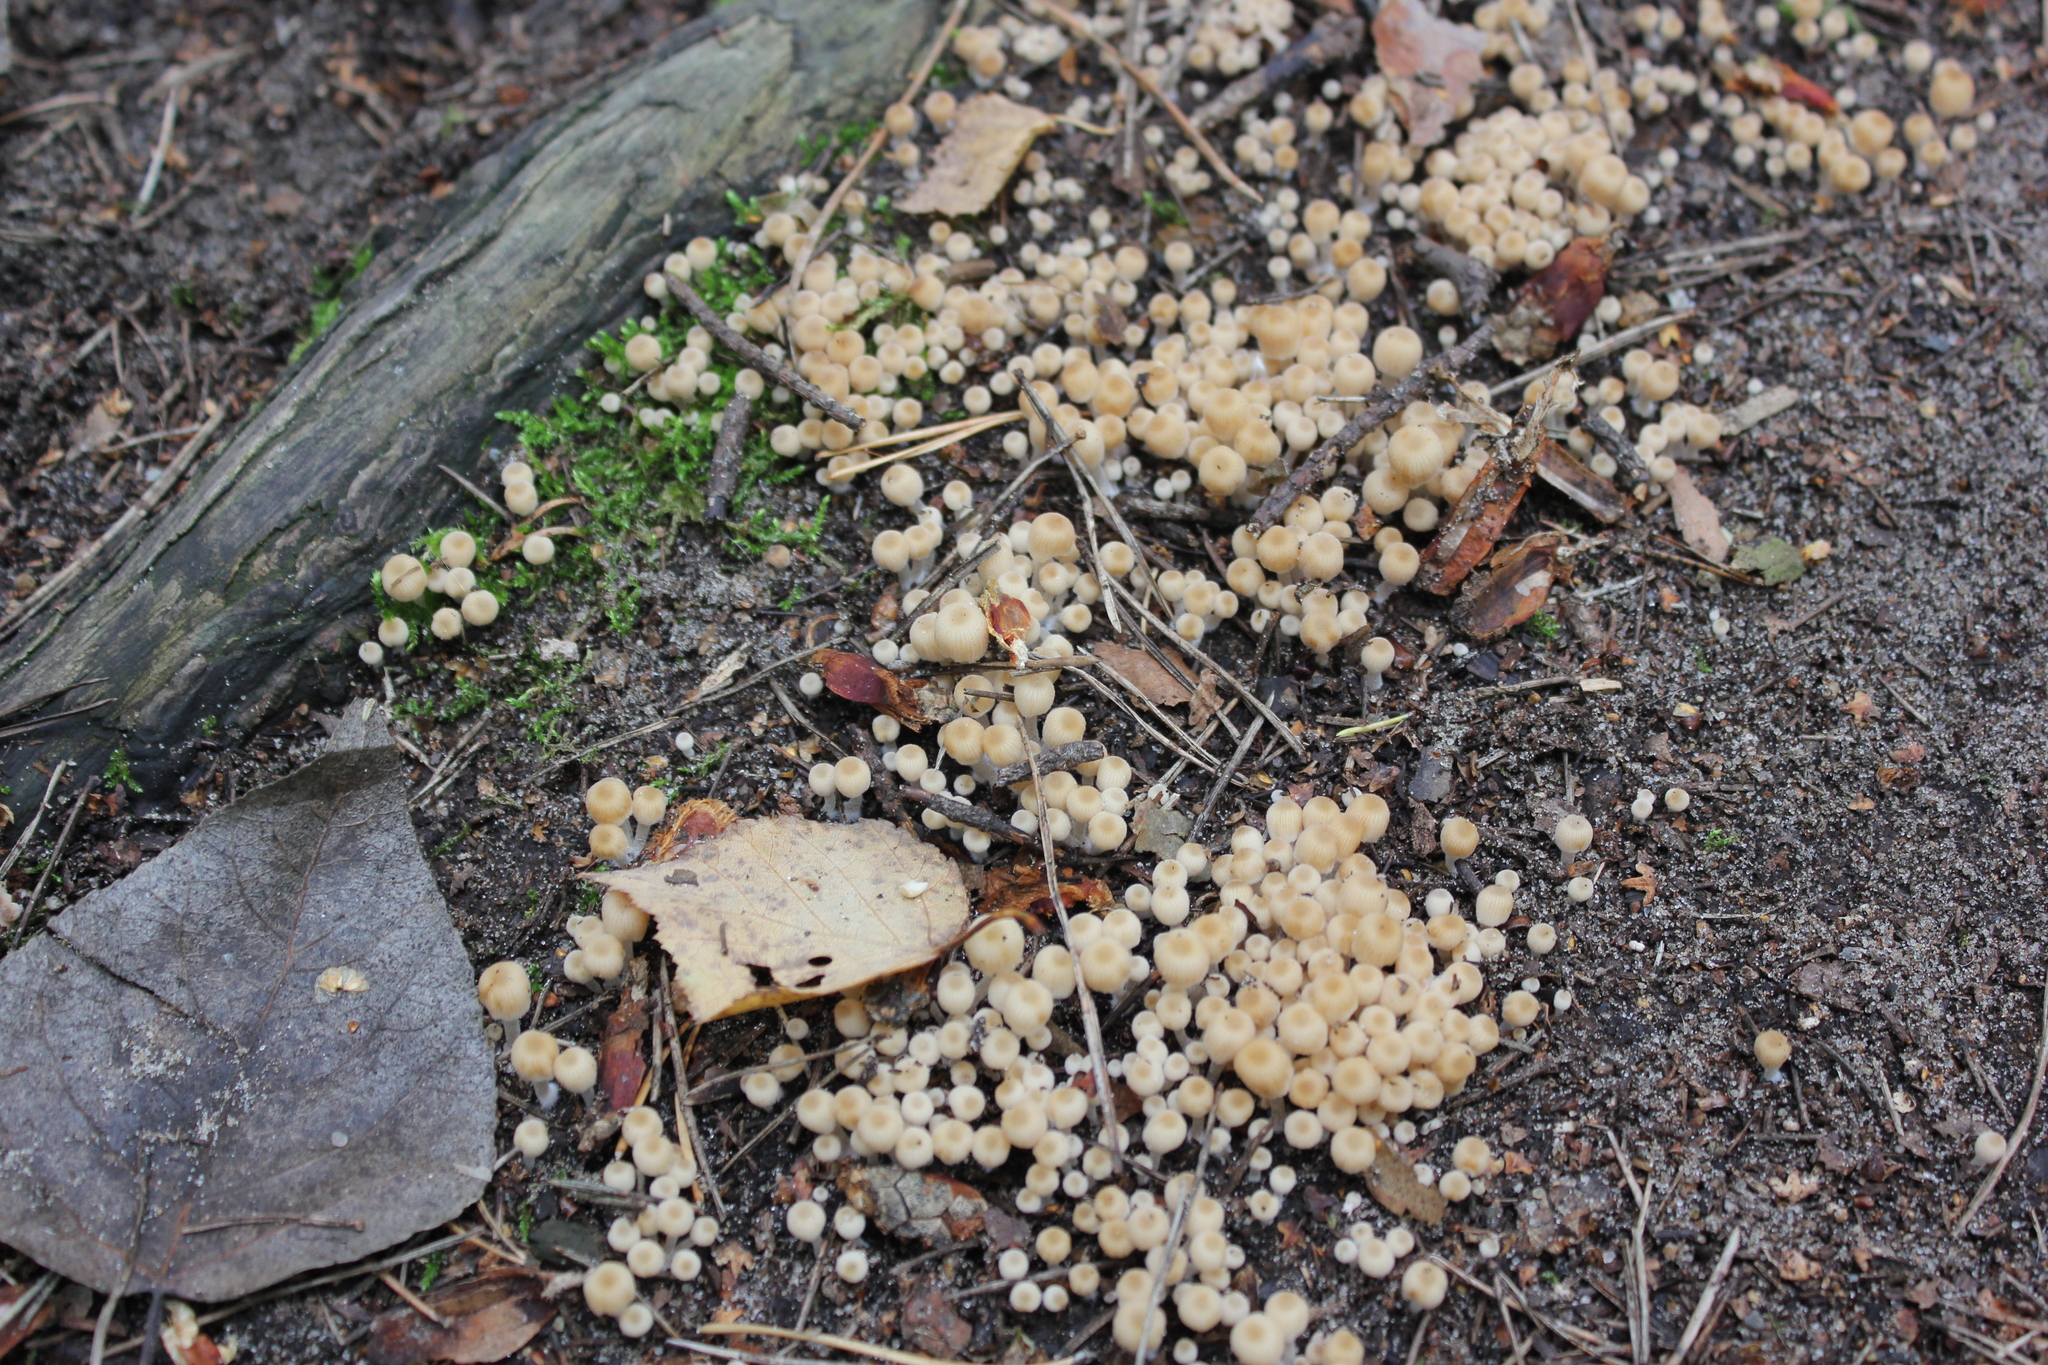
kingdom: Fungi
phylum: Basidiomycota
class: Agaricomycetes
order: Agaricales
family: Psathyrellaceae
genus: Coprinellus
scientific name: Coprinellus disseminatus
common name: Fairies' bonnets
